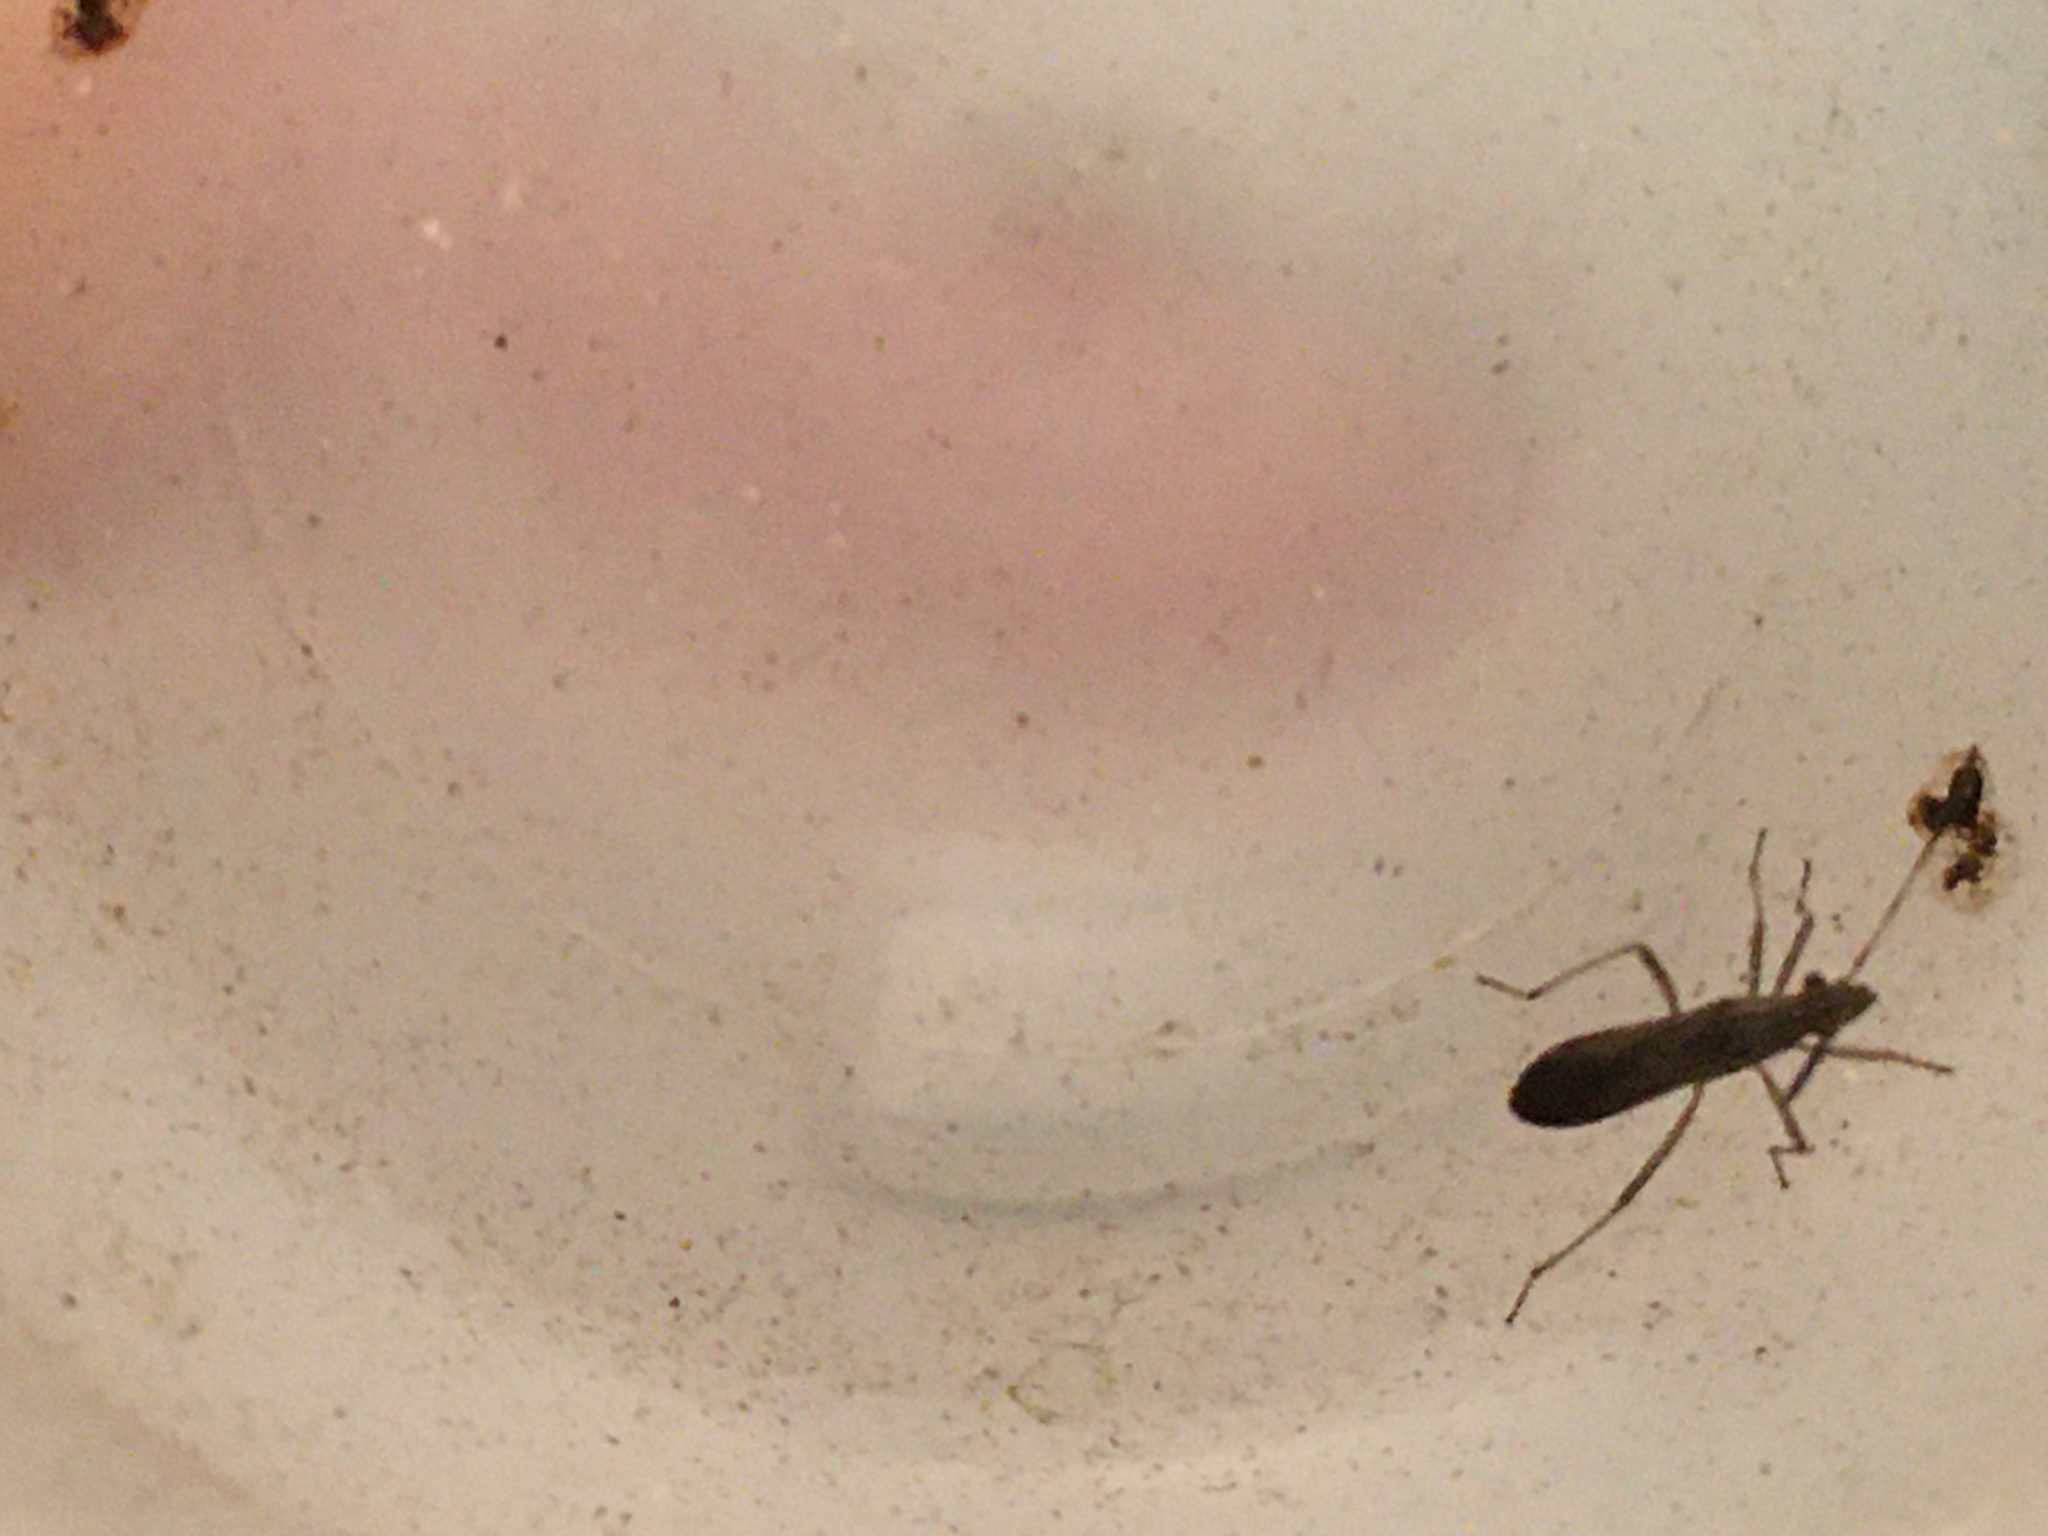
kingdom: Animalia
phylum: Arthropoda
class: Insecta
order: Hemiptera
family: Alydidae
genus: Esperanza
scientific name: Esperanza texana
